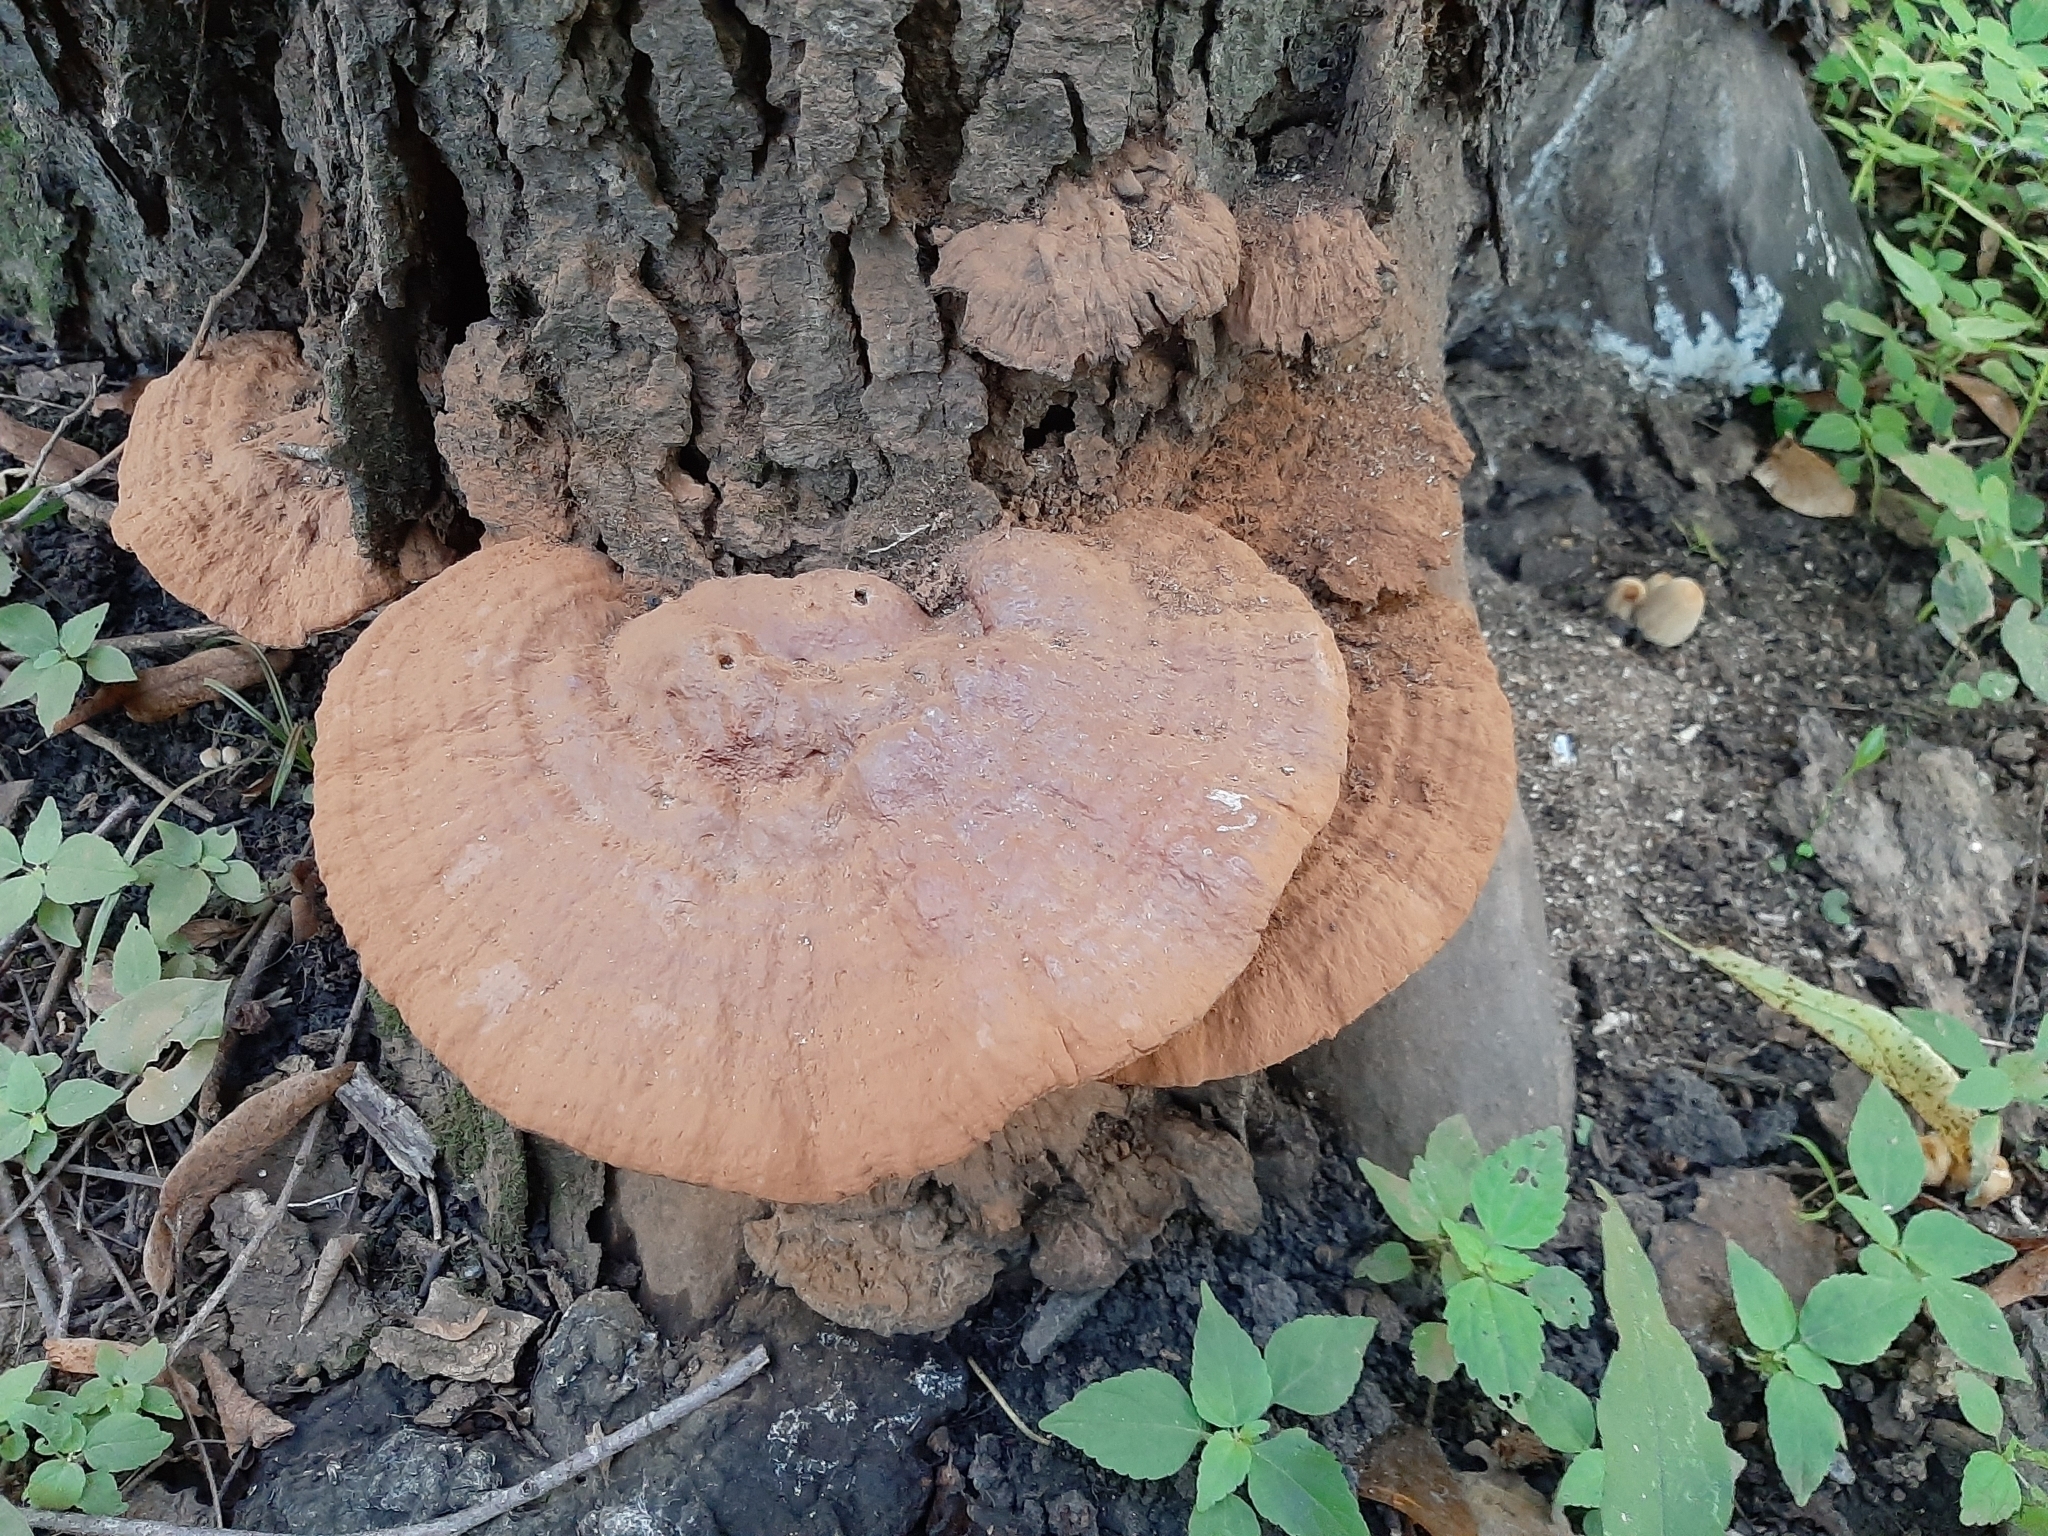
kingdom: Fungi
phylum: Basidiomycota
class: Agaricomycetes
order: Polyporales
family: Polyporaceae
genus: Ganoderma
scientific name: Ganoderma applanatum
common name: Artist's bracket
